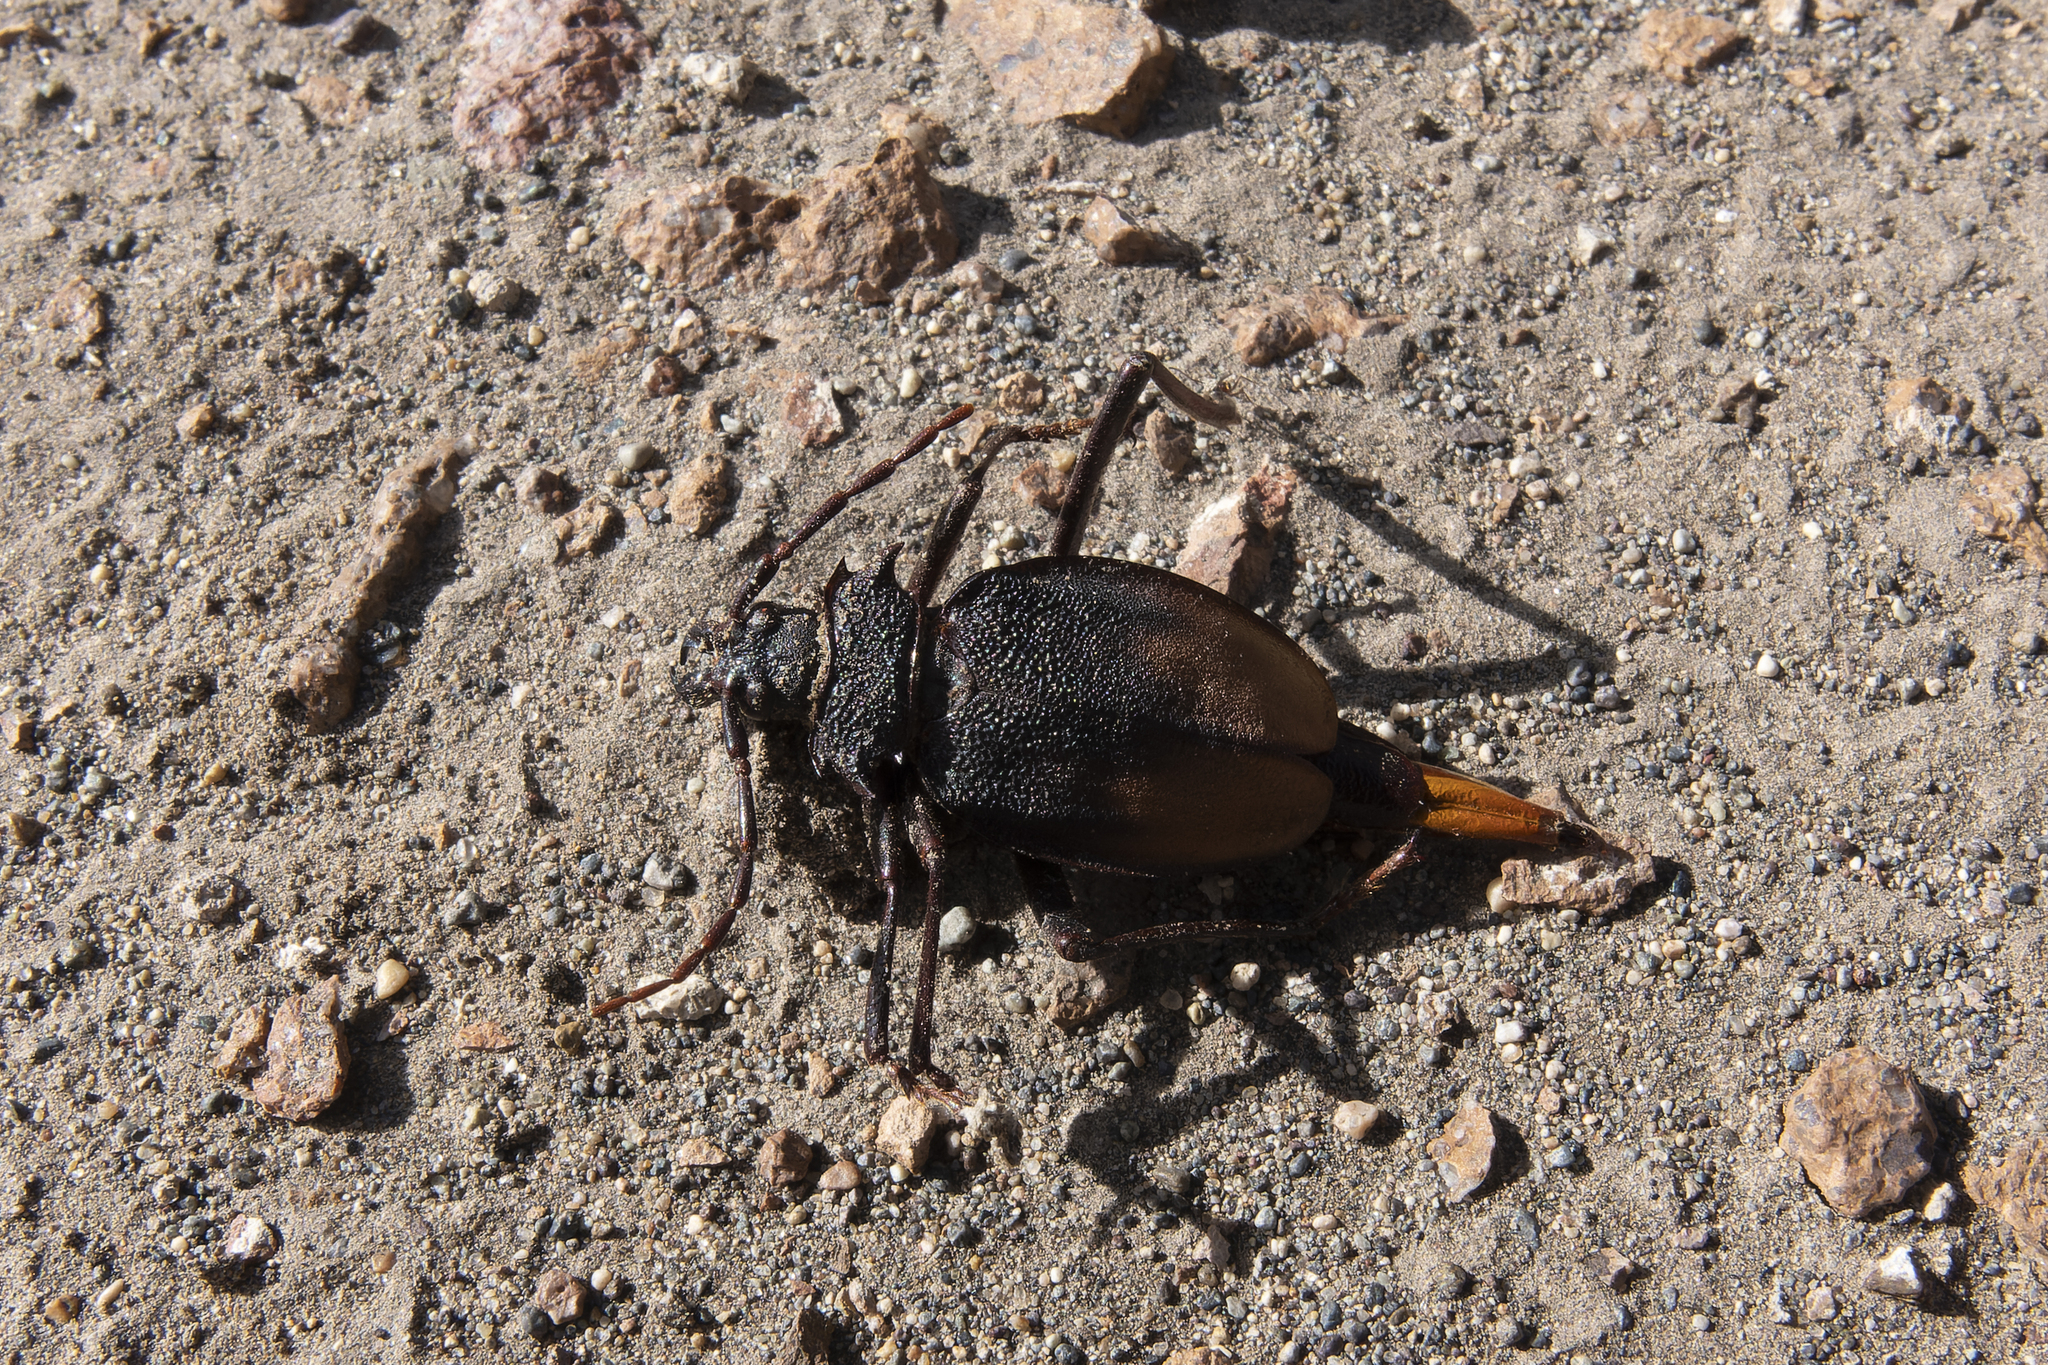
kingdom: Animalia
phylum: Arthropoda
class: Insecta
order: Coleoptera
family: Cerambycidae
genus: Apterocaulus
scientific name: Apterocaulus heterogama
